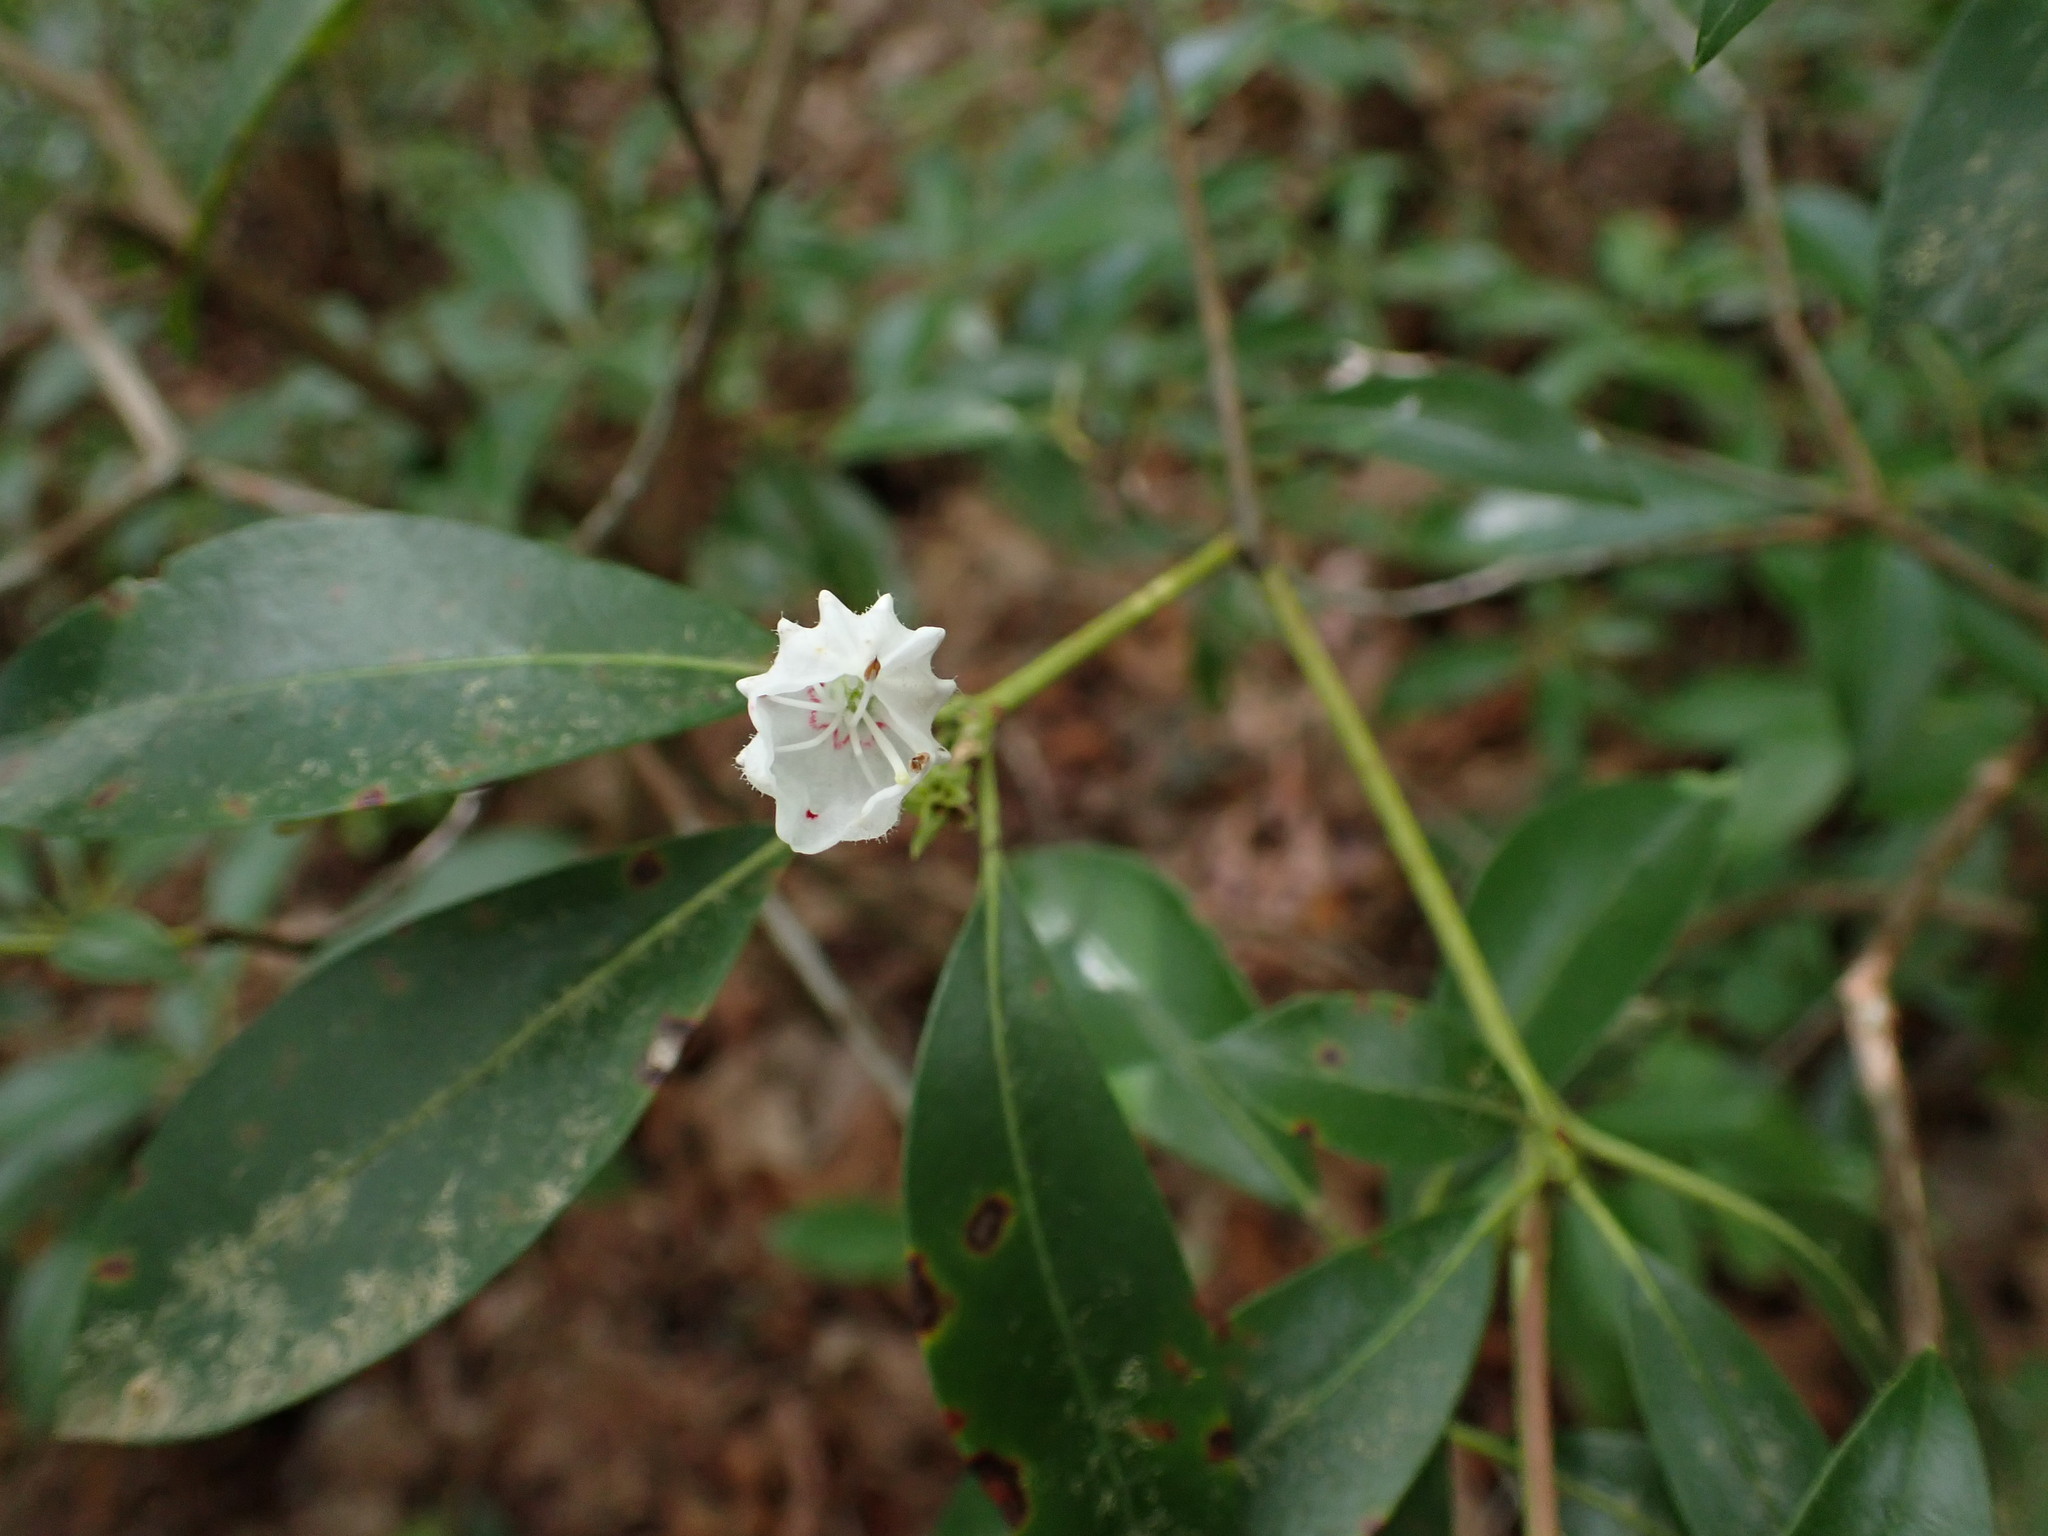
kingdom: Plantae
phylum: Tracheophyta
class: Magnoliopsida
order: Ericales
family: Ericaceae
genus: Kalmia
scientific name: Kalmia latifolia
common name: Mountain-laurel
